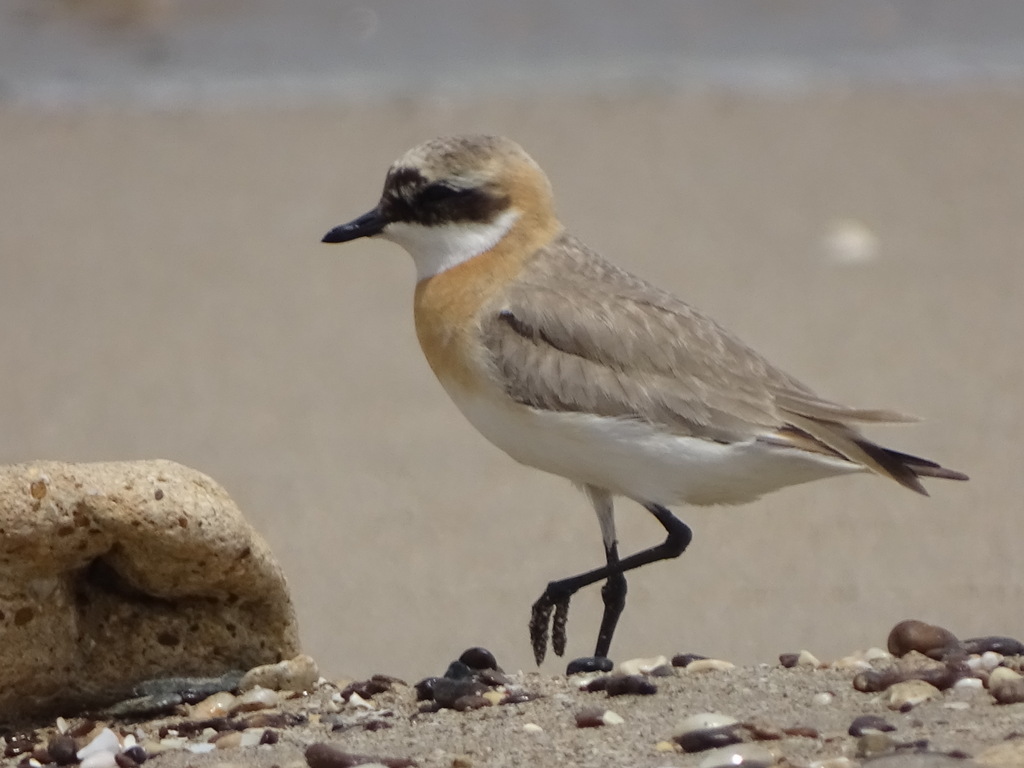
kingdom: Animalia
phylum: Chordata
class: Aves
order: Charadriiformes
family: Charadriidae
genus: Anarhynchus
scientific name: Anarhynchus
